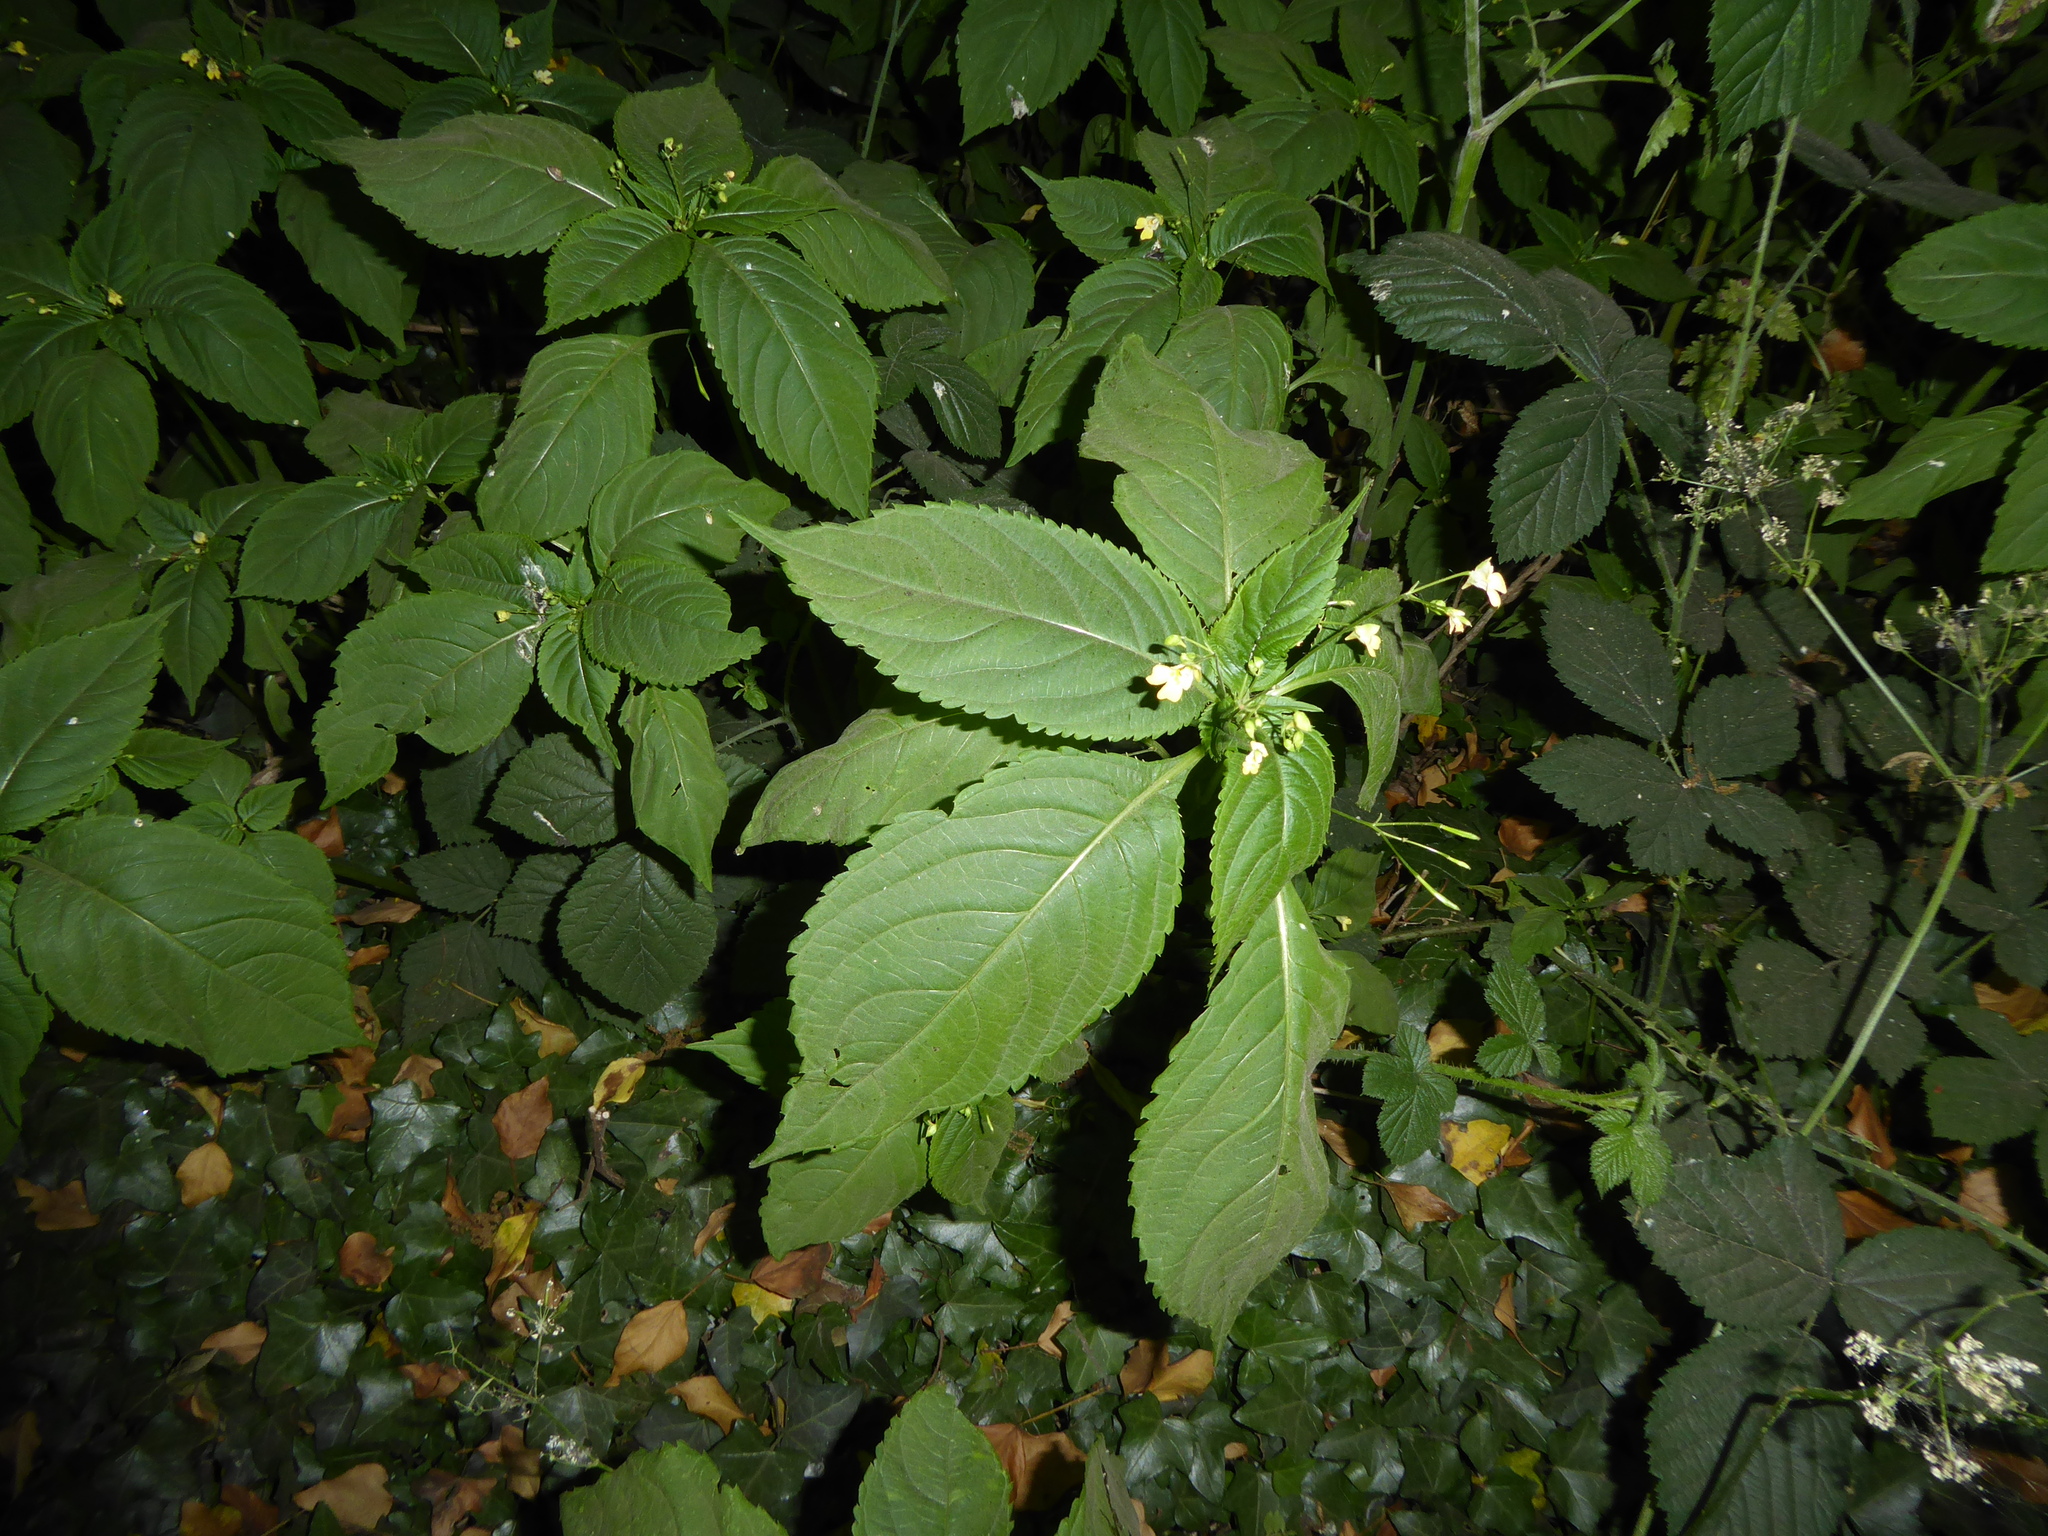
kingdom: Plantae
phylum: Tracheophyta
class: Magnoliopsida
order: Ericales
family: Balsaminaceae
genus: Impatiens
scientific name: Impatiens parviflora
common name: Small balsam
